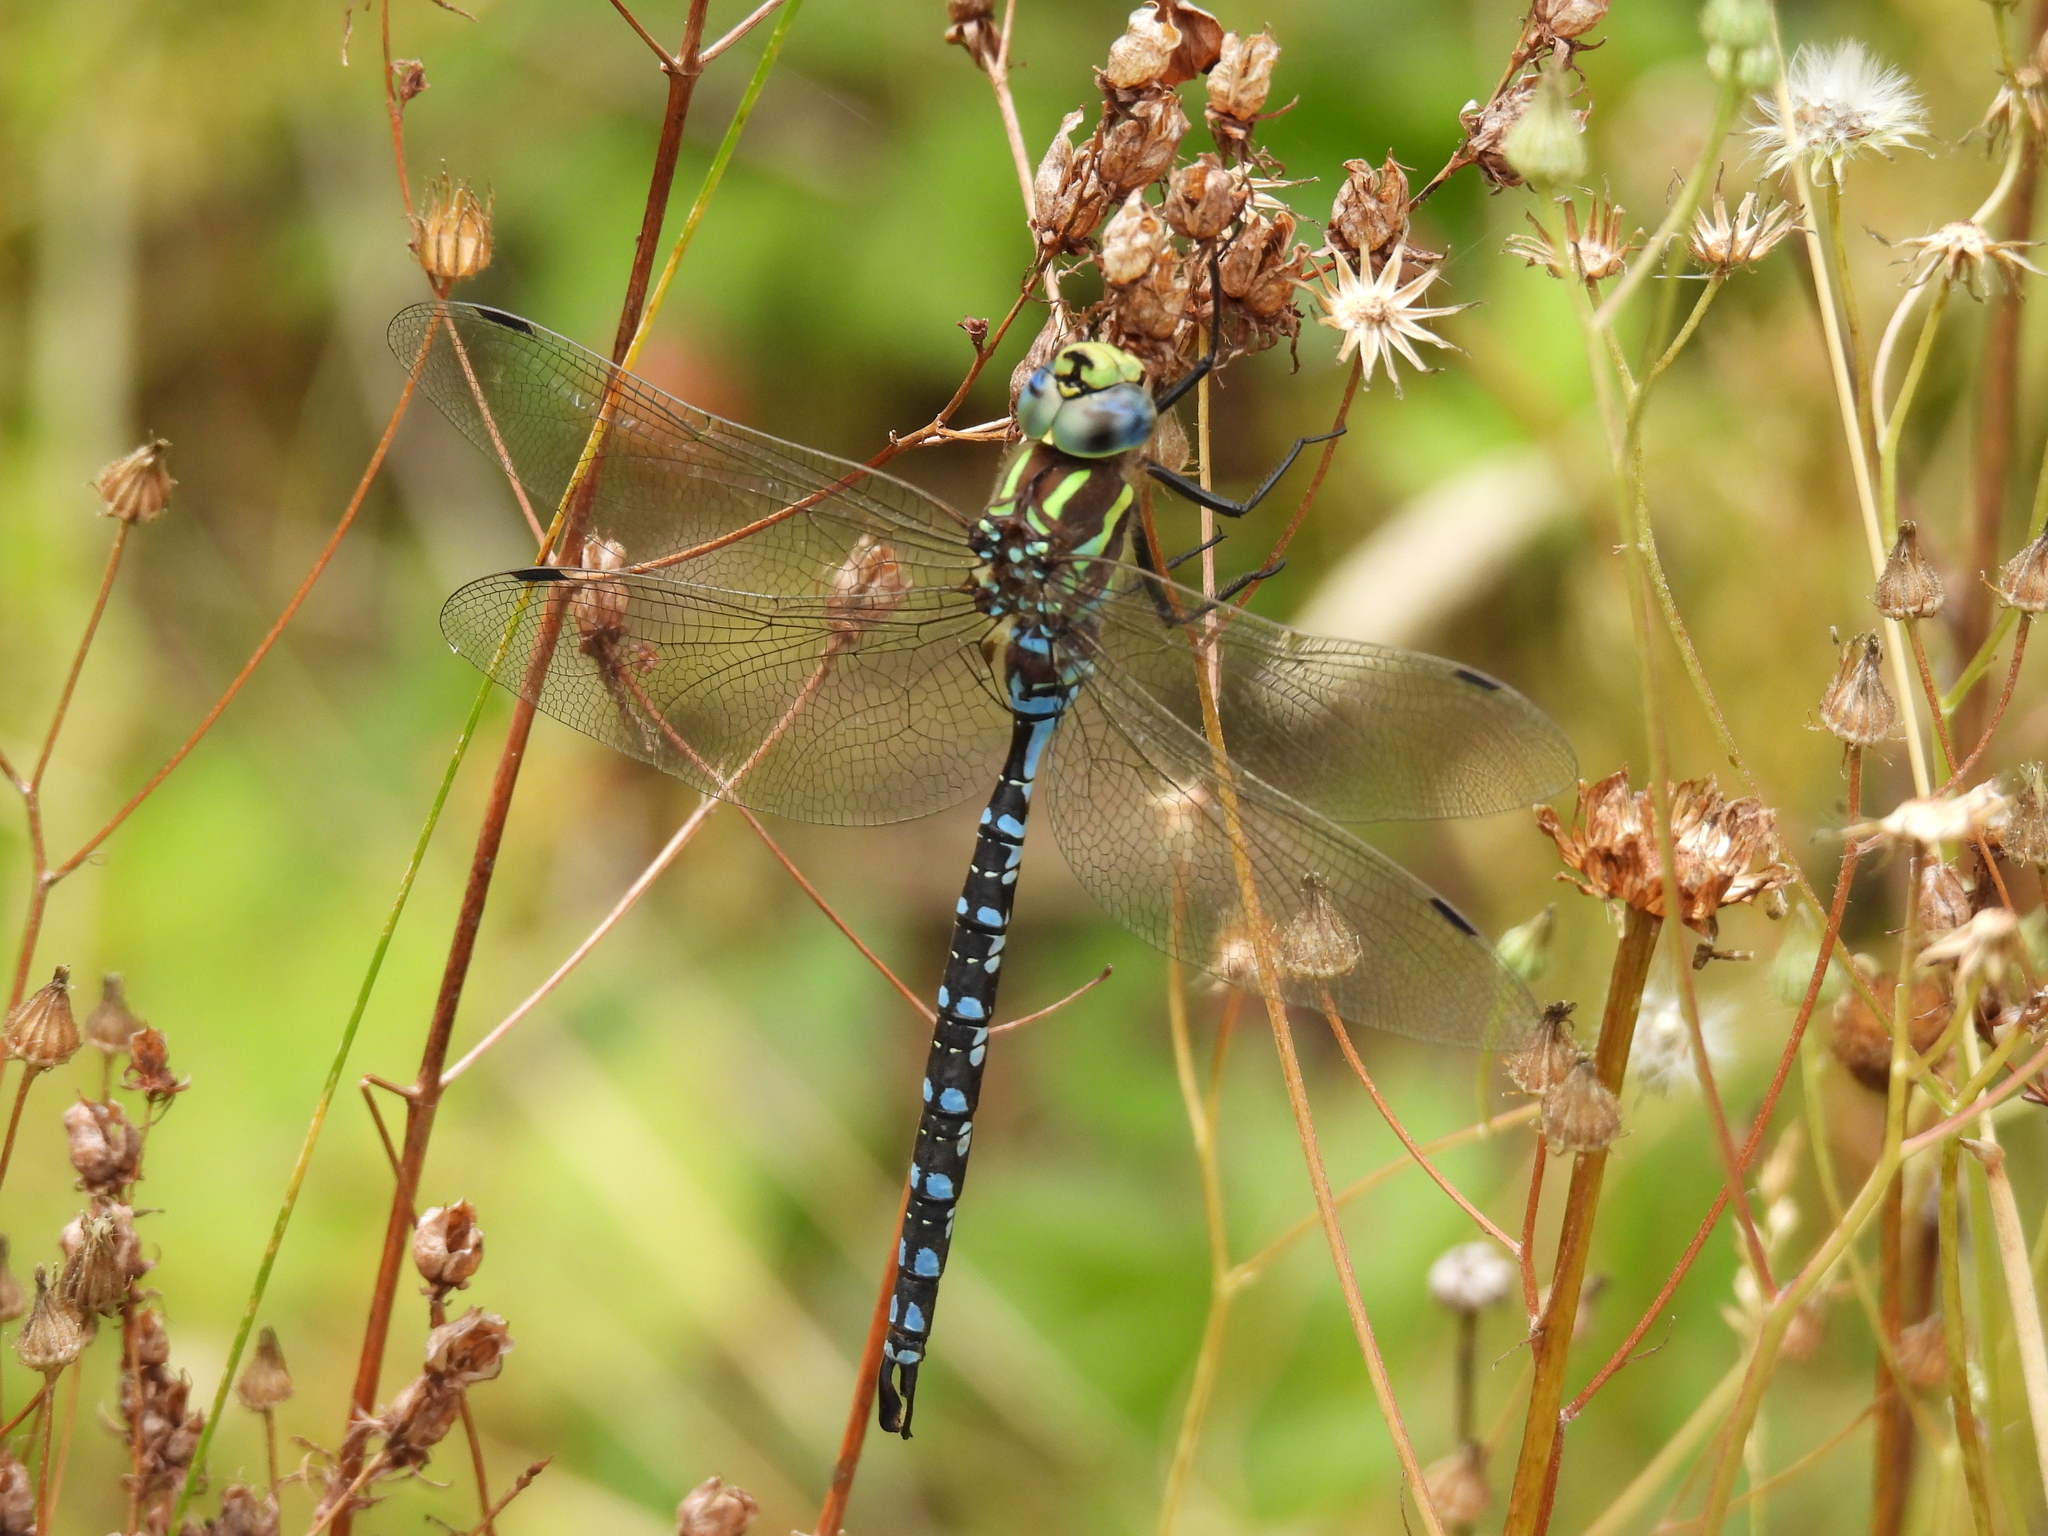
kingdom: Animalia
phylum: Arthropoda
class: Insecta
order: Odonata
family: Aeshnidae
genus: Aeshna
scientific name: Aeshna constricta
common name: Lance-tipped darner
